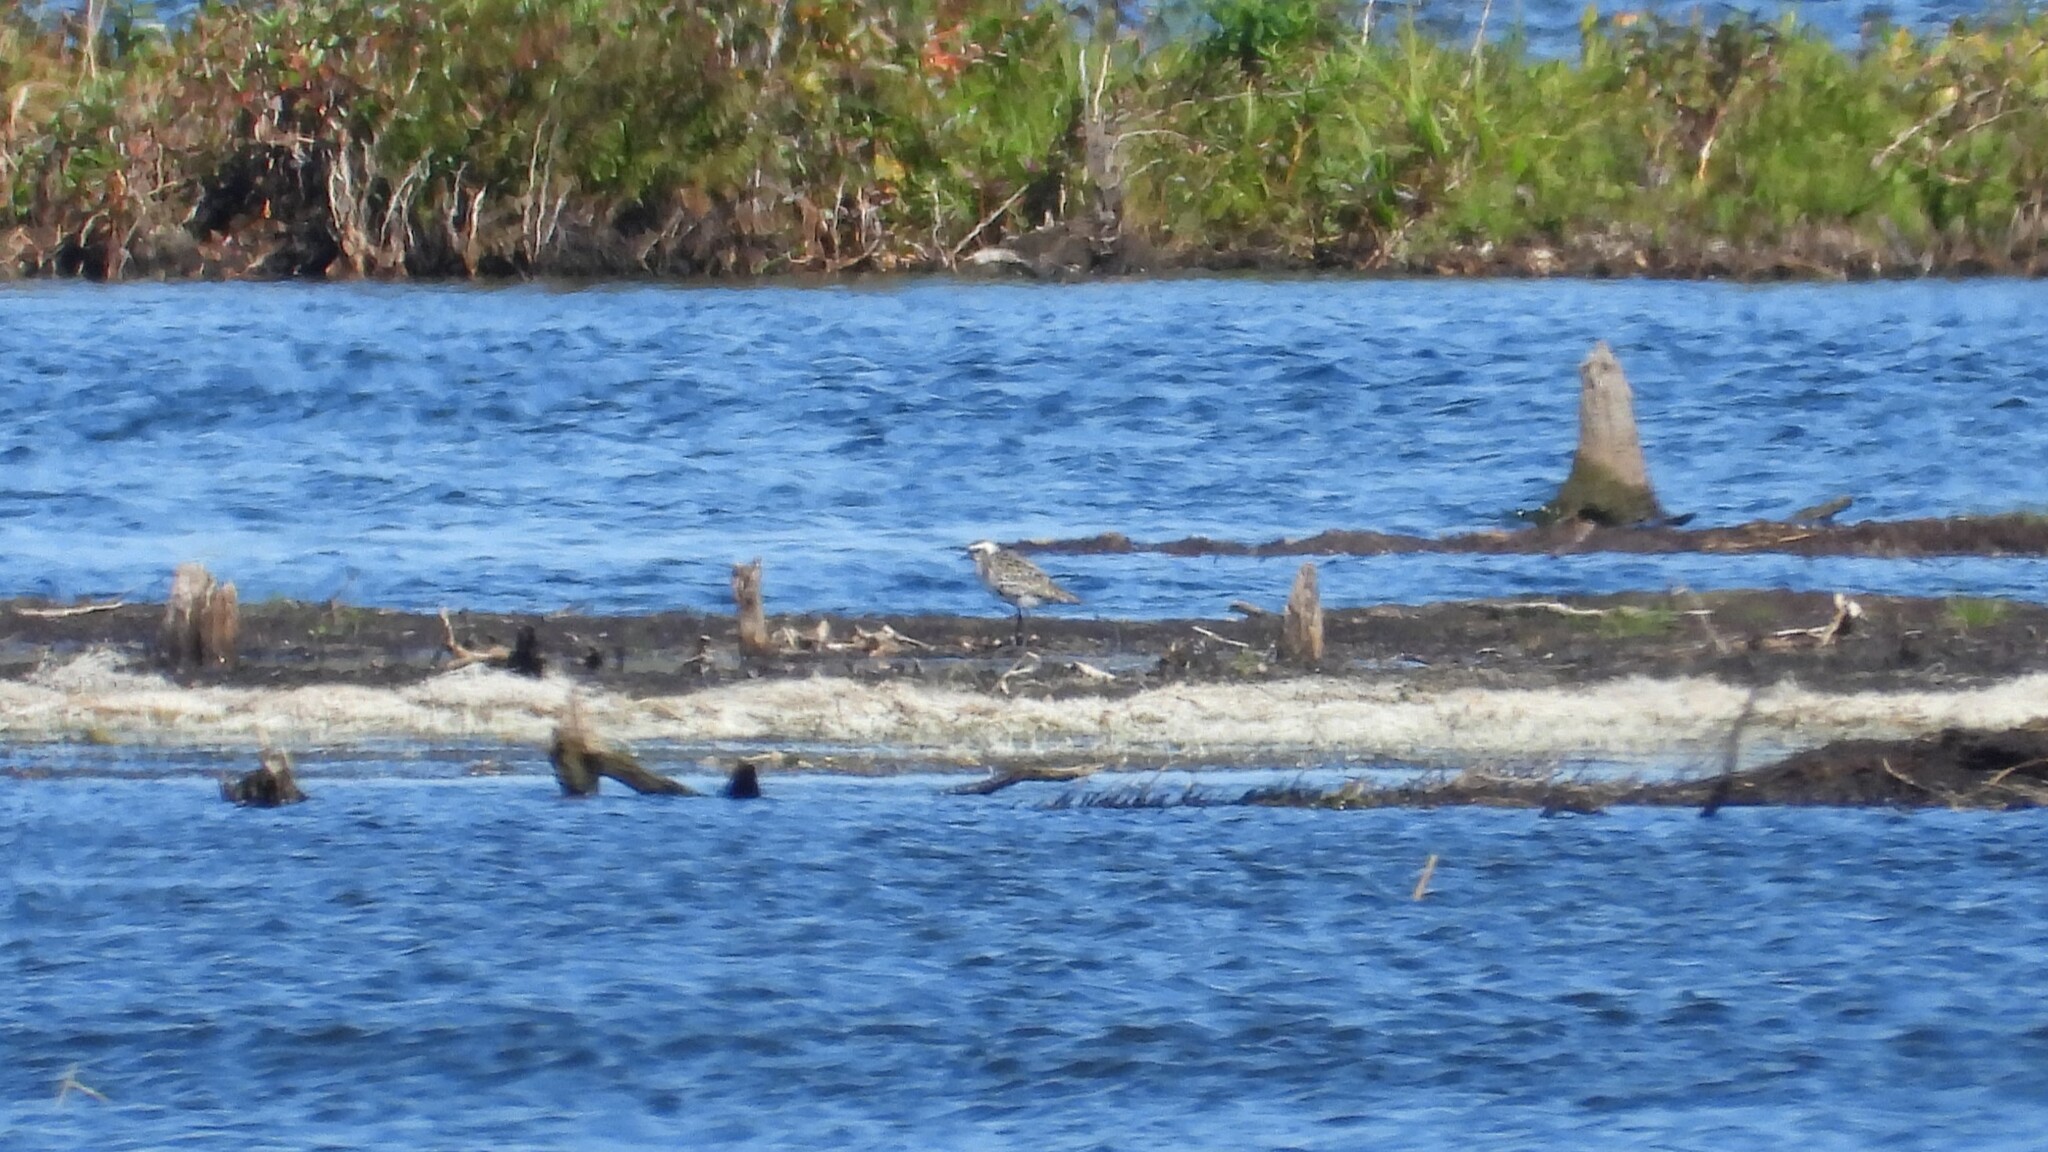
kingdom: Animalia
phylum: Chordata
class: Aves
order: Charadriiformes
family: Charadriidae
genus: Pluvialis
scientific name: Pluvialis dominica
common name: American golden plover
